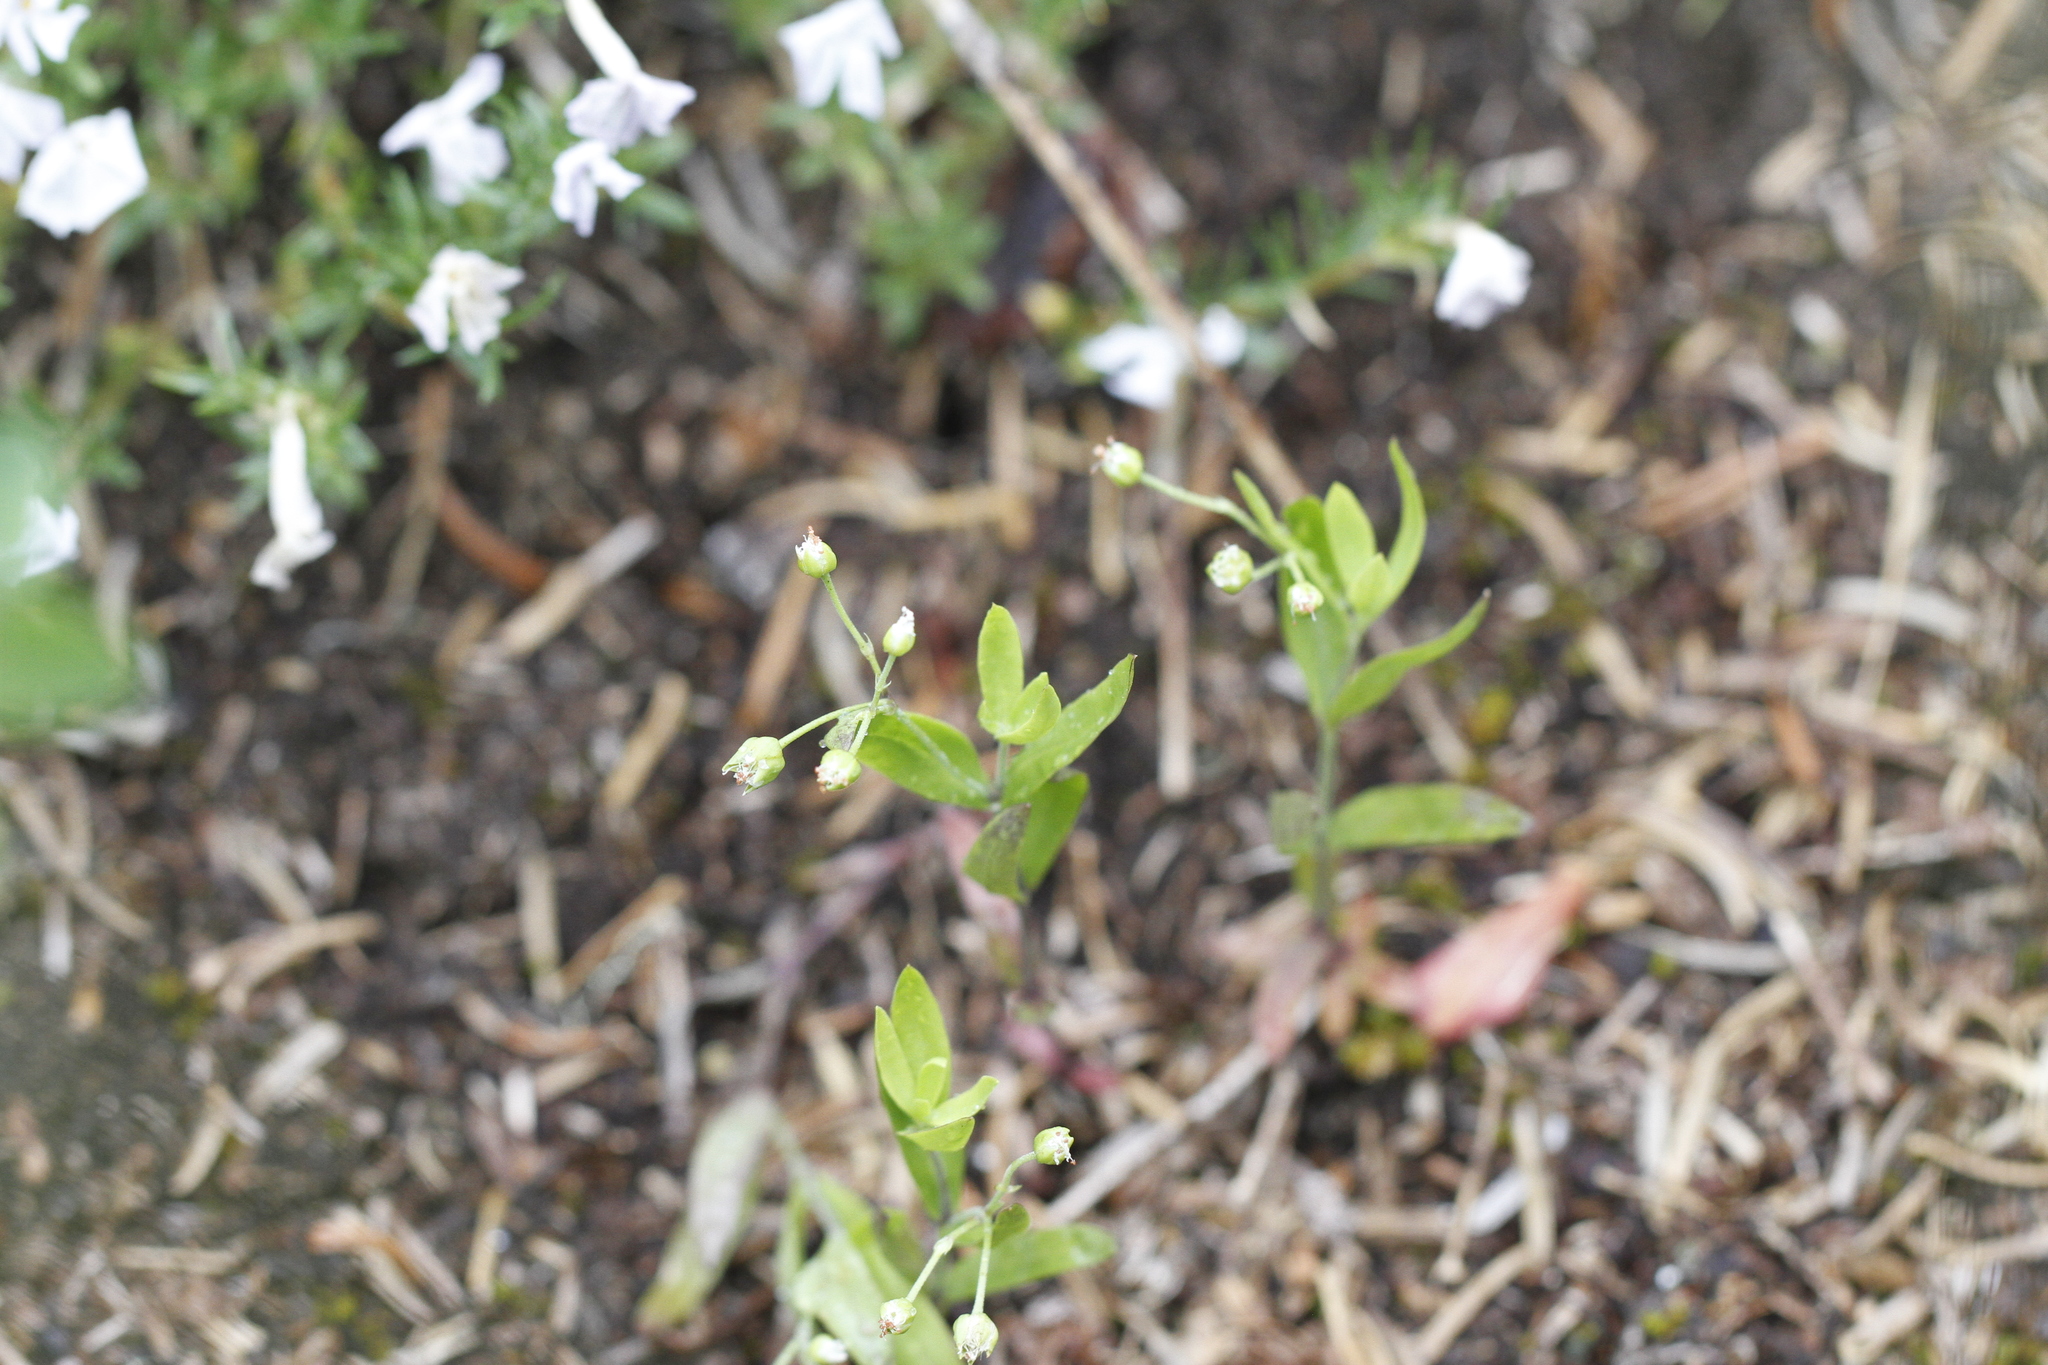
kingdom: Plantae
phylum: Tracheophyta
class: Magnoliopsida
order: Caryophyllales
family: Caryophyllaceae
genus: Moehringia
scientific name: Moehringia macrophylla
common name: Big-leaf sandwort
